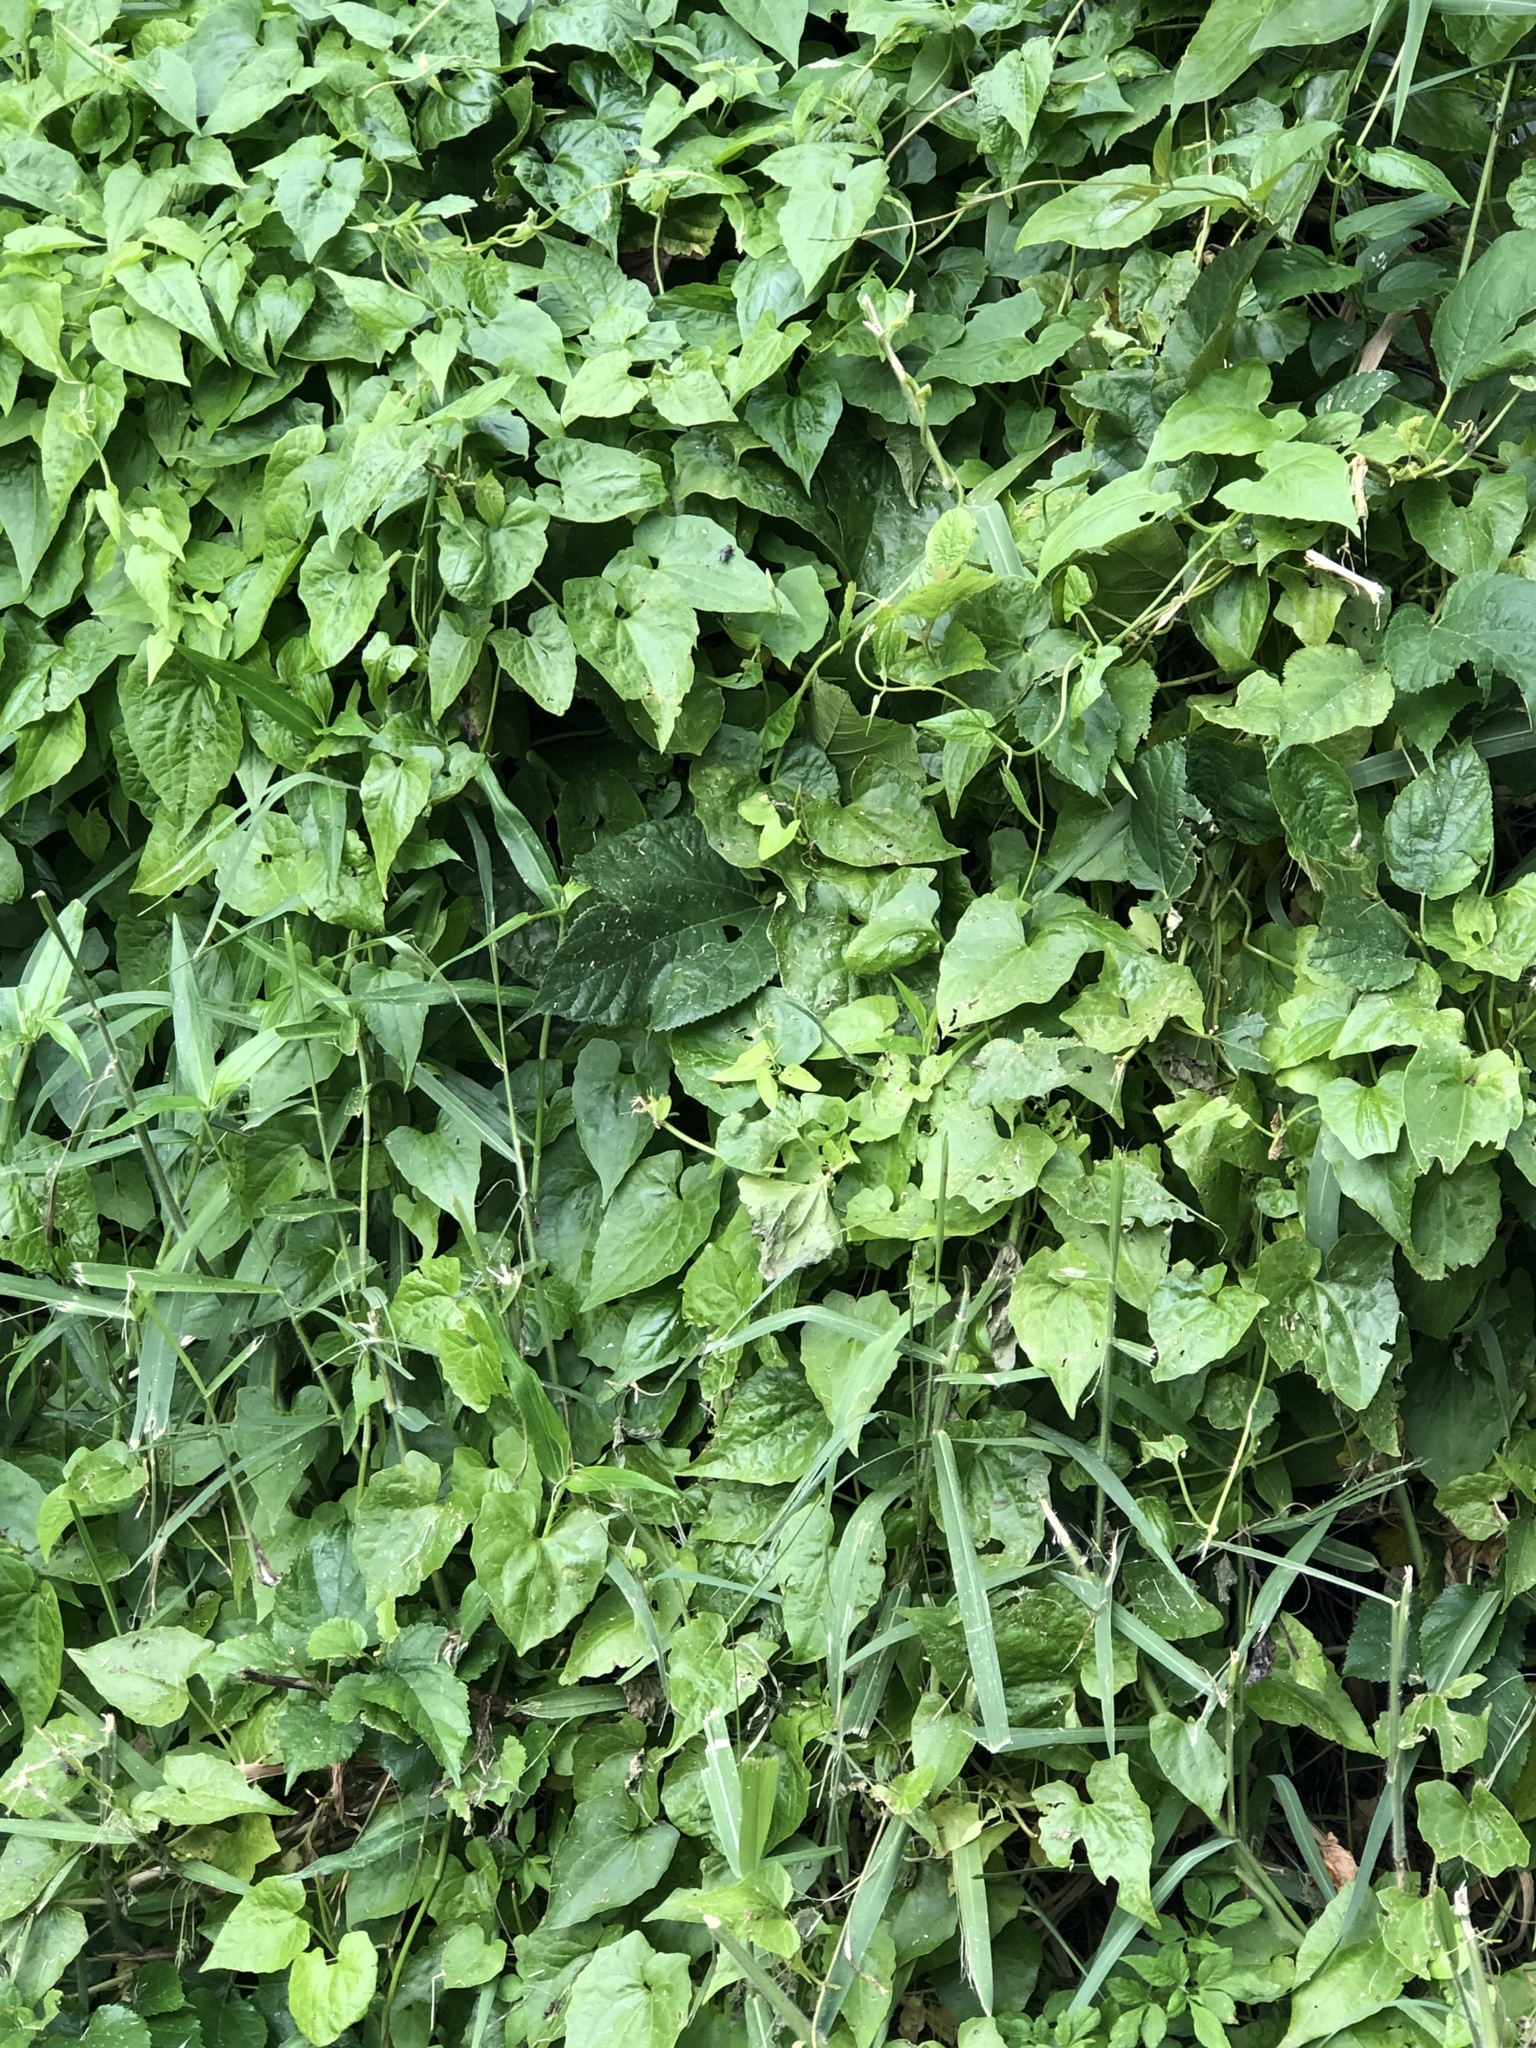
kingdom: Plantae
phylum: Tracheophyta
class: Magnoliopsida
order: Asterales
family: Asteraceae
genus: Mikania
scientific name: Mikania micrantha
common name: Mile-a-minute
